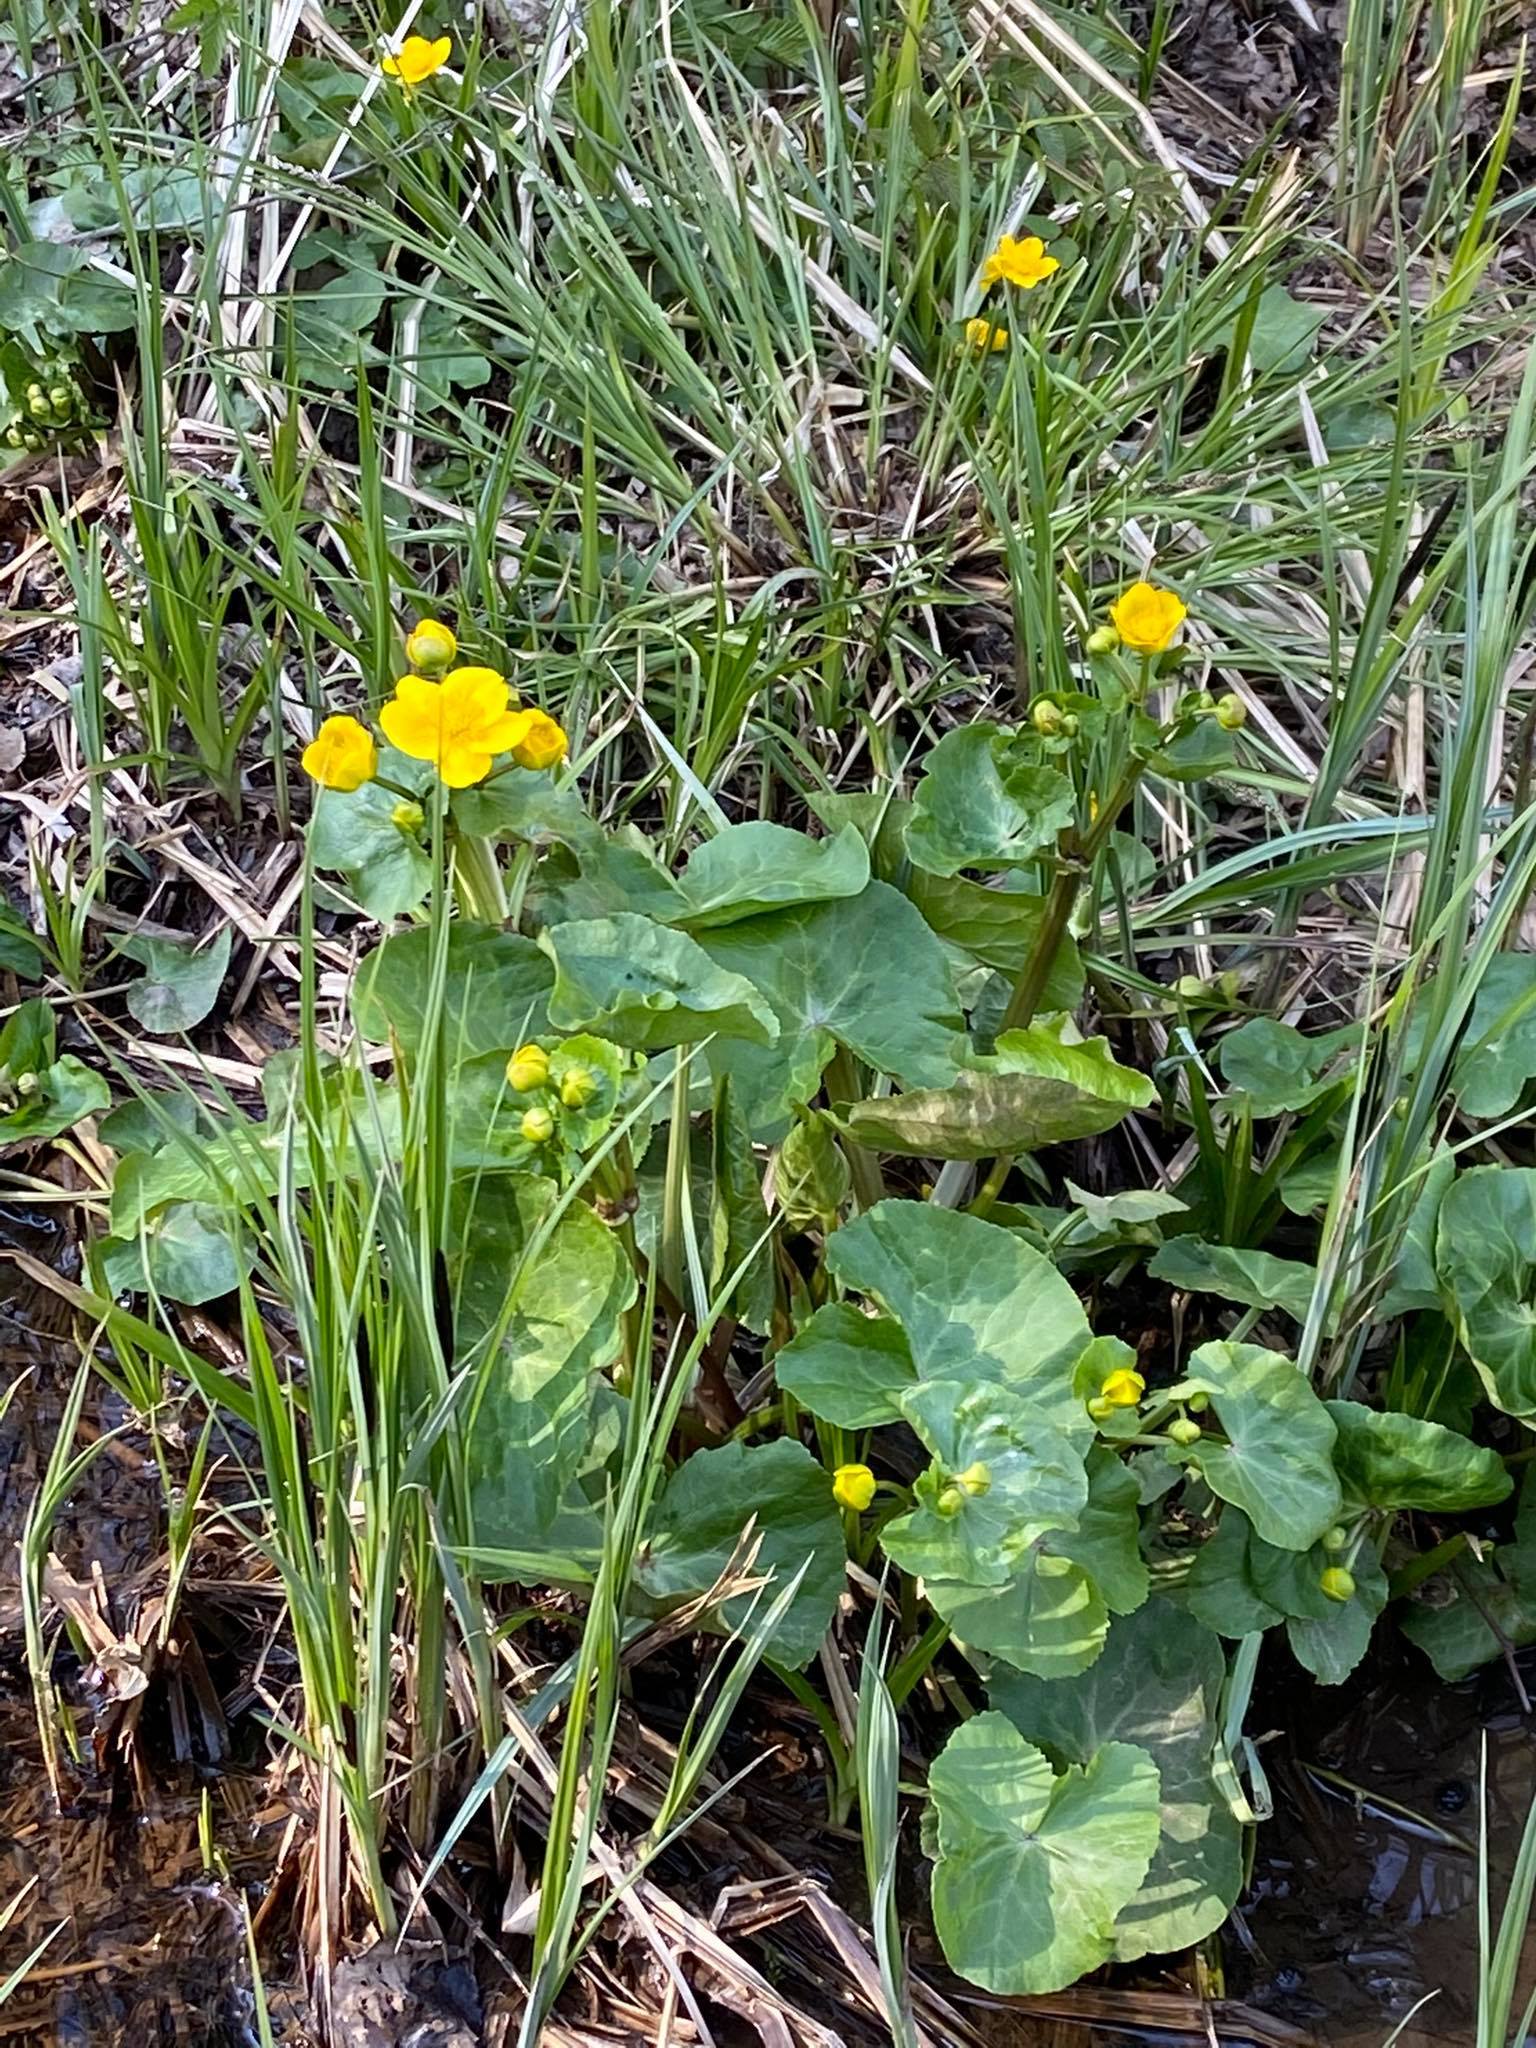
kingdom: Plantae
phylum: Tracheophyta
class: Magnoliopsida
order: Ranunculales
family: Ranunculaceae
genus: Caltha
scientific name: Caltha palustris
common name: Marsh marigold
